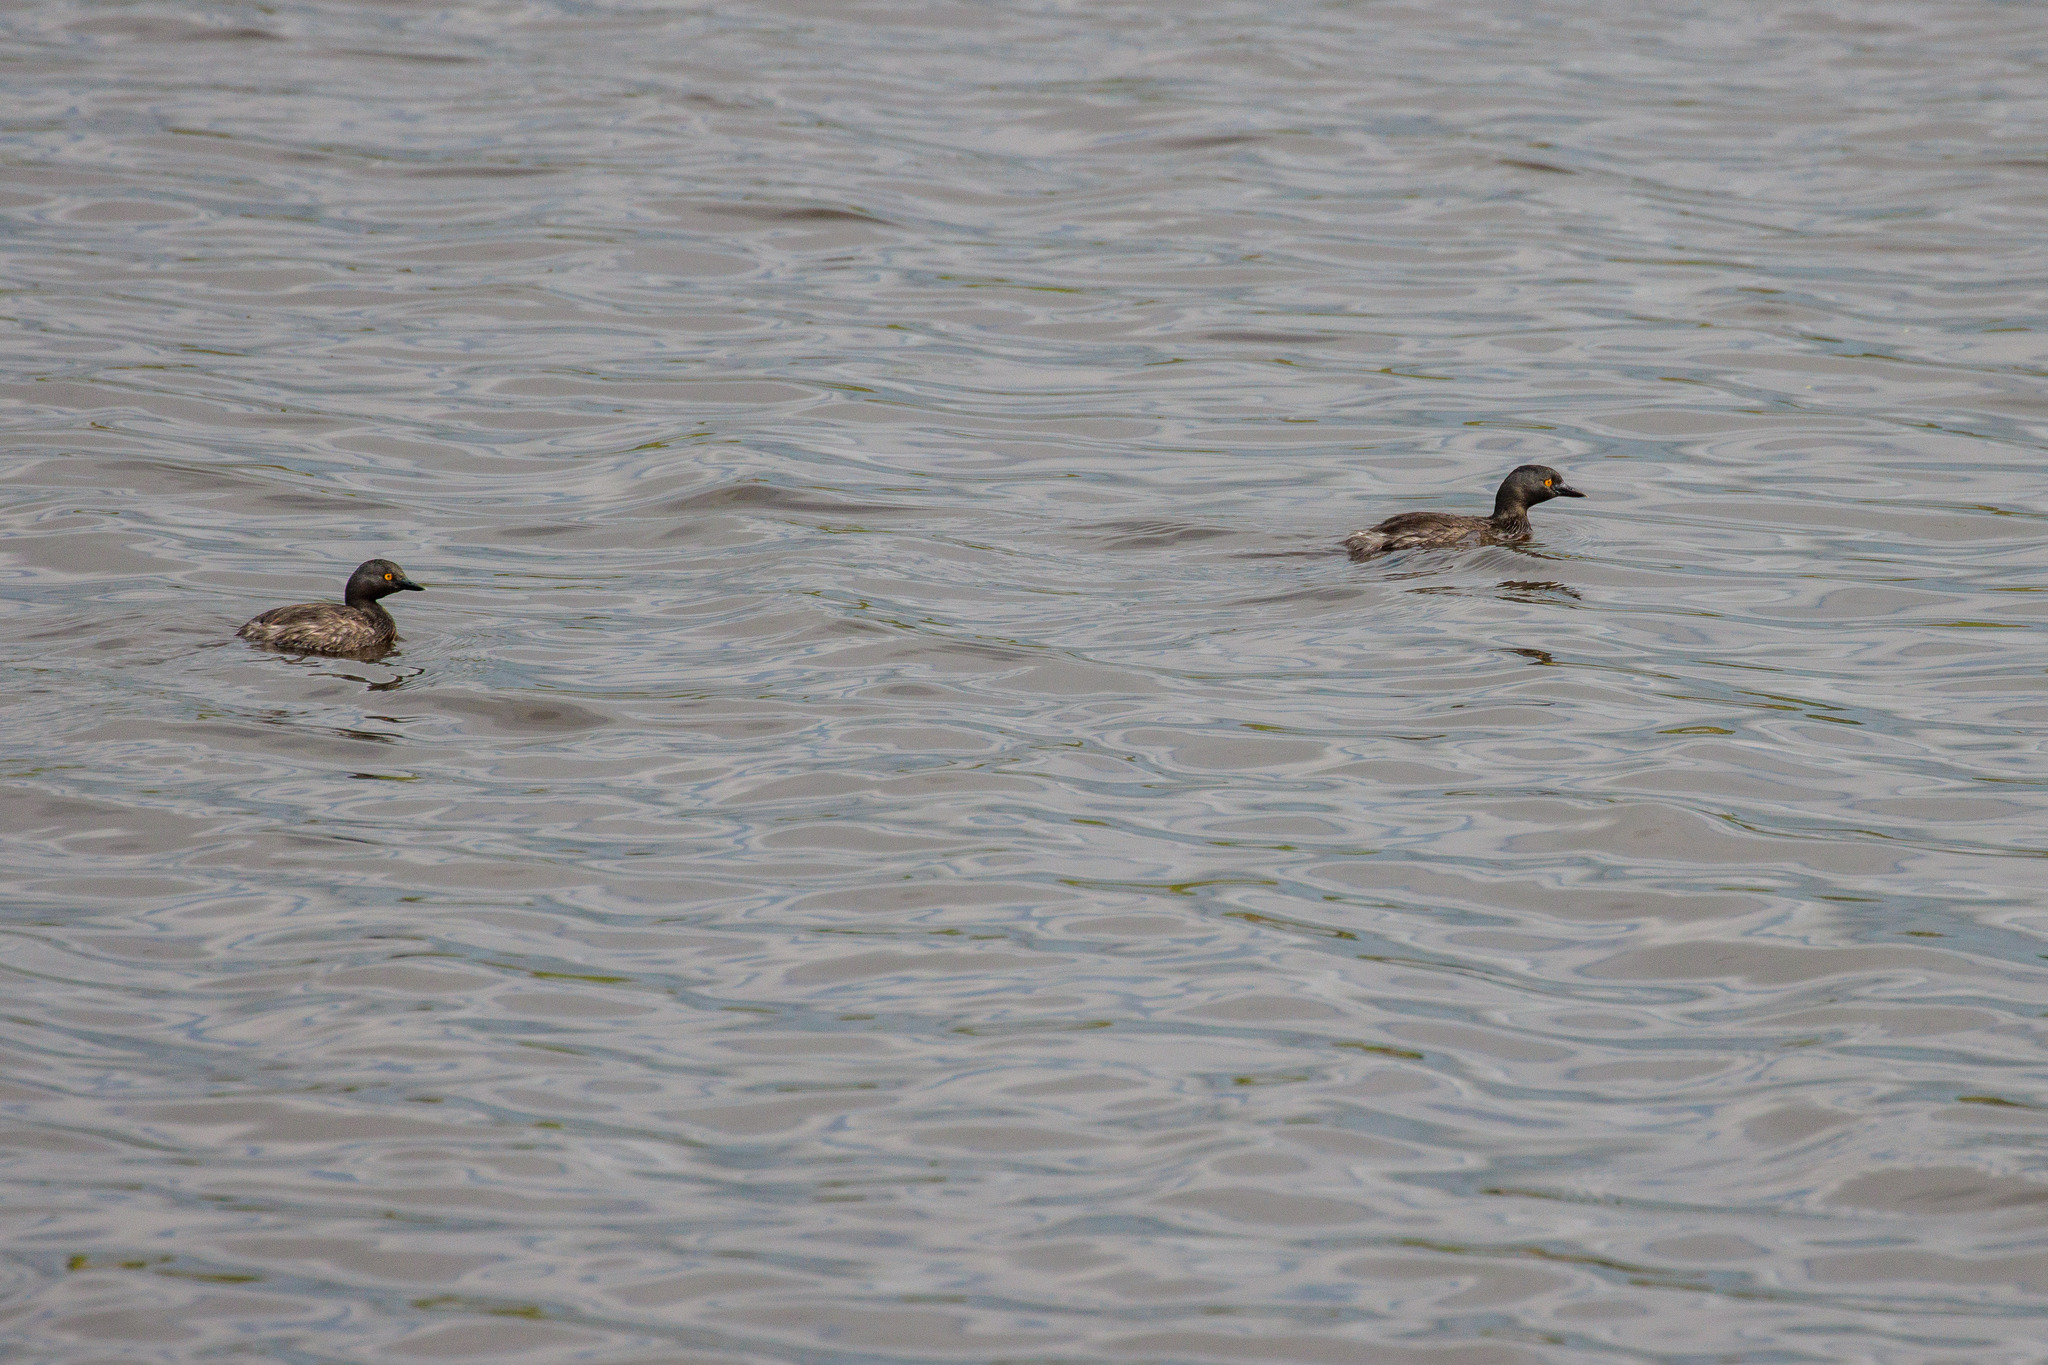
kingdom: Animalia
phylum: Chordata
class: Aves
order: Podicipediformes
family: Podicipedidae
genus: Tachybaptus
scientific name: Tachybaptus dominicus
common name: Least grebe
